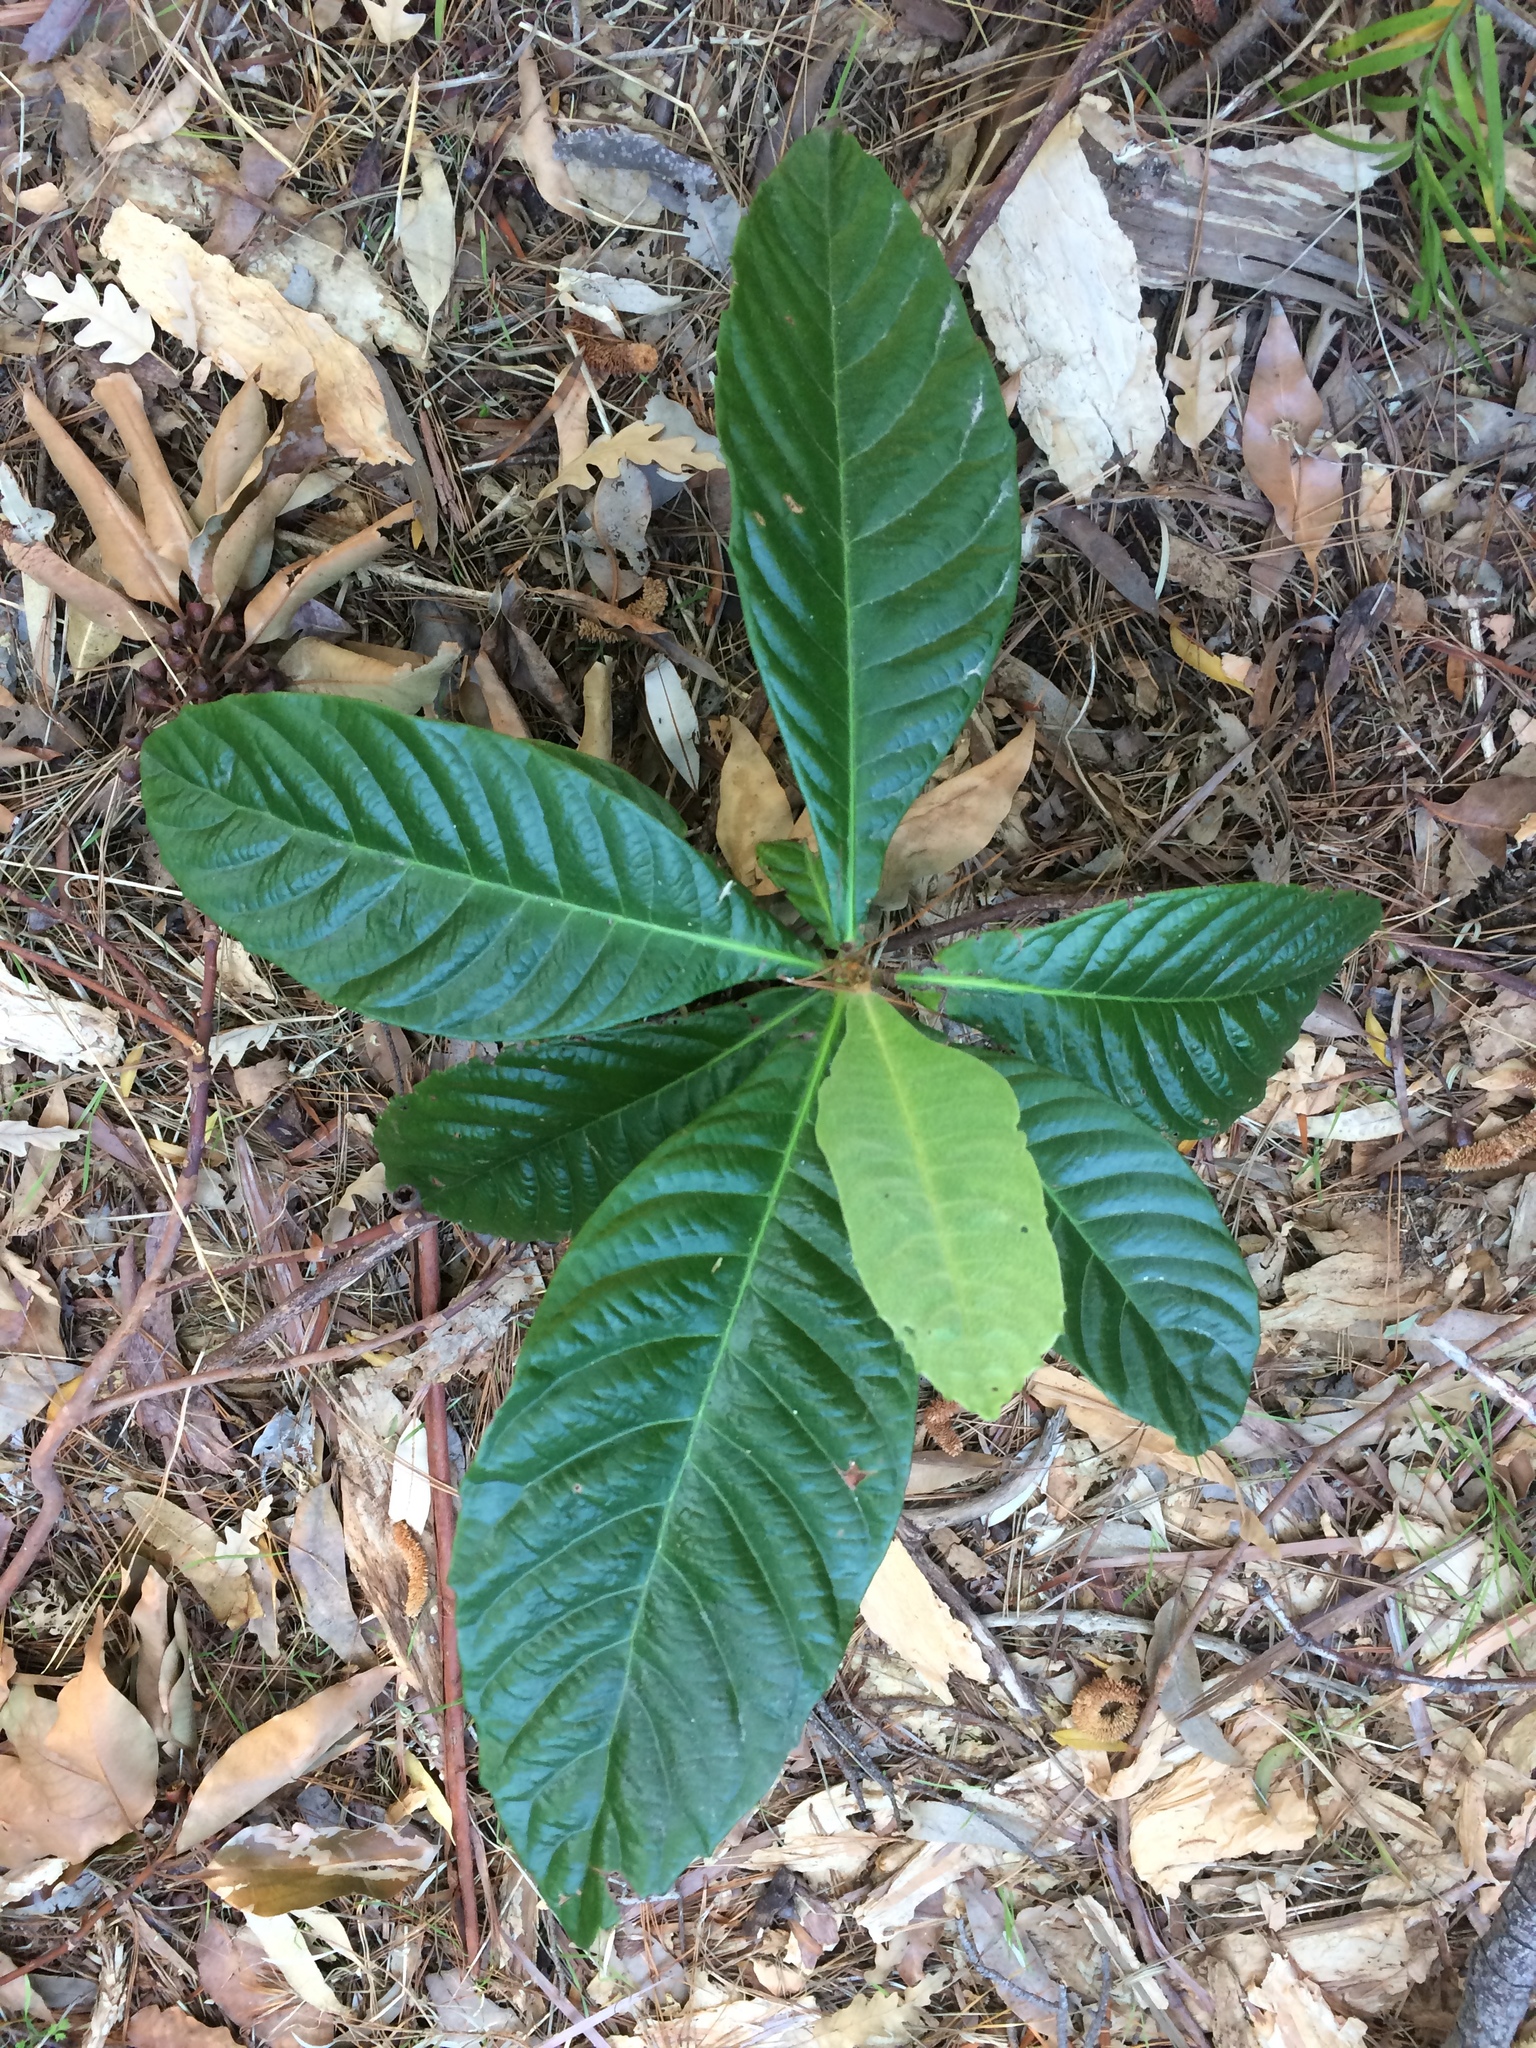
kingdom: Plantae
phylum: Tracheophyta
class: Magnoliopsida
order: Rosales
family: Rosaceae
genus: Rhaphiolepis
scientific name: Rhaphiolepis bibas
